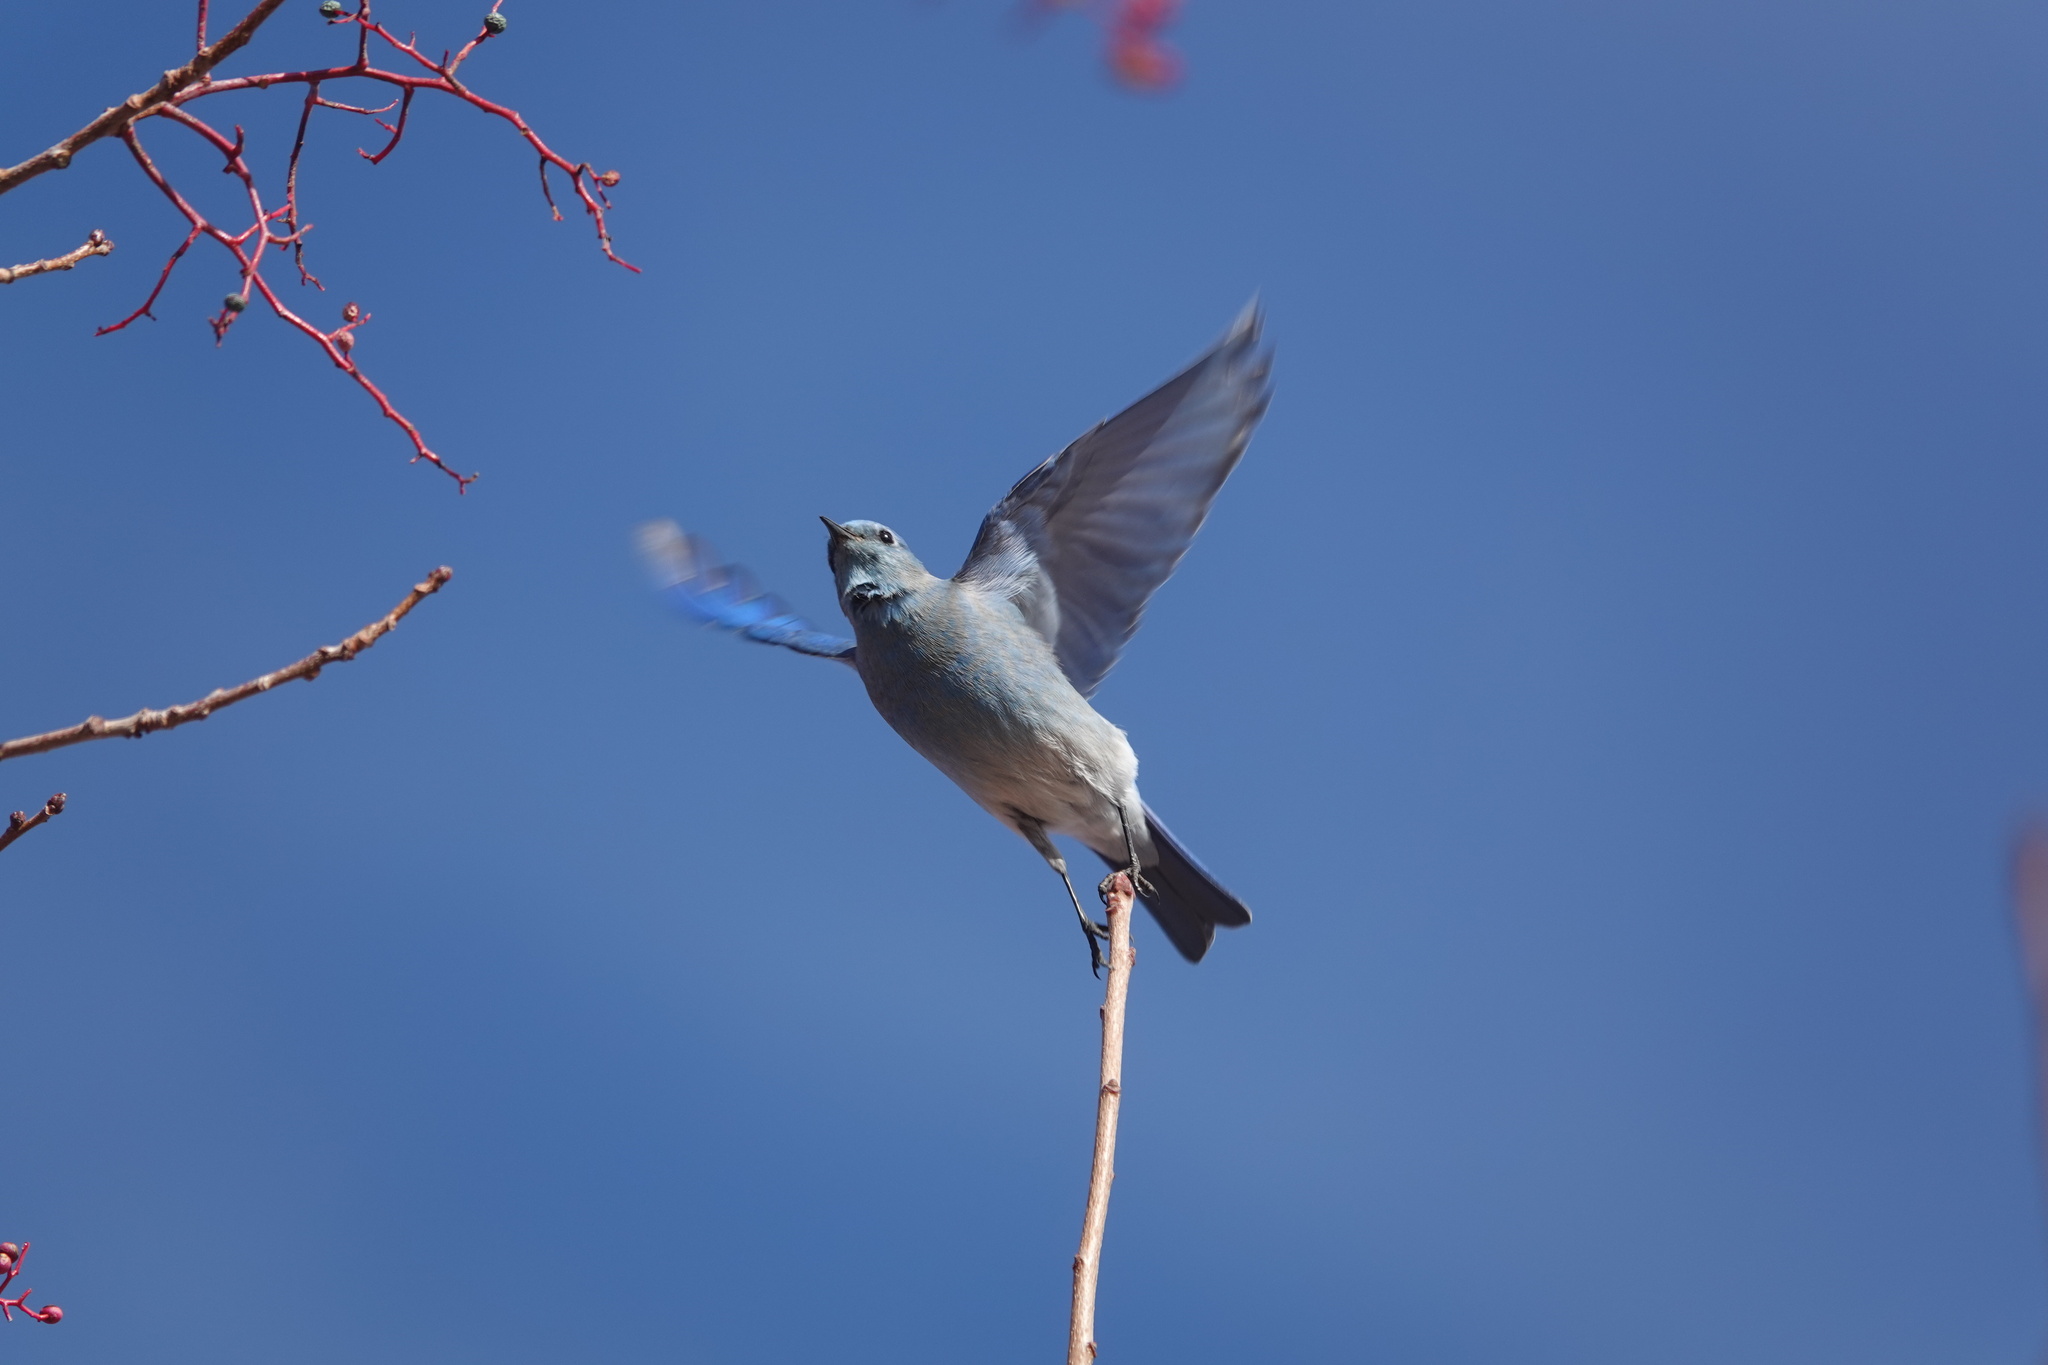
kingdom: Animalia
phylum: Chordata
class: Aves
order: Passeriformes
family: Turdidae
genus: Sialia
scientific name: Sialia currucoides
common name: Mountain bluebird
